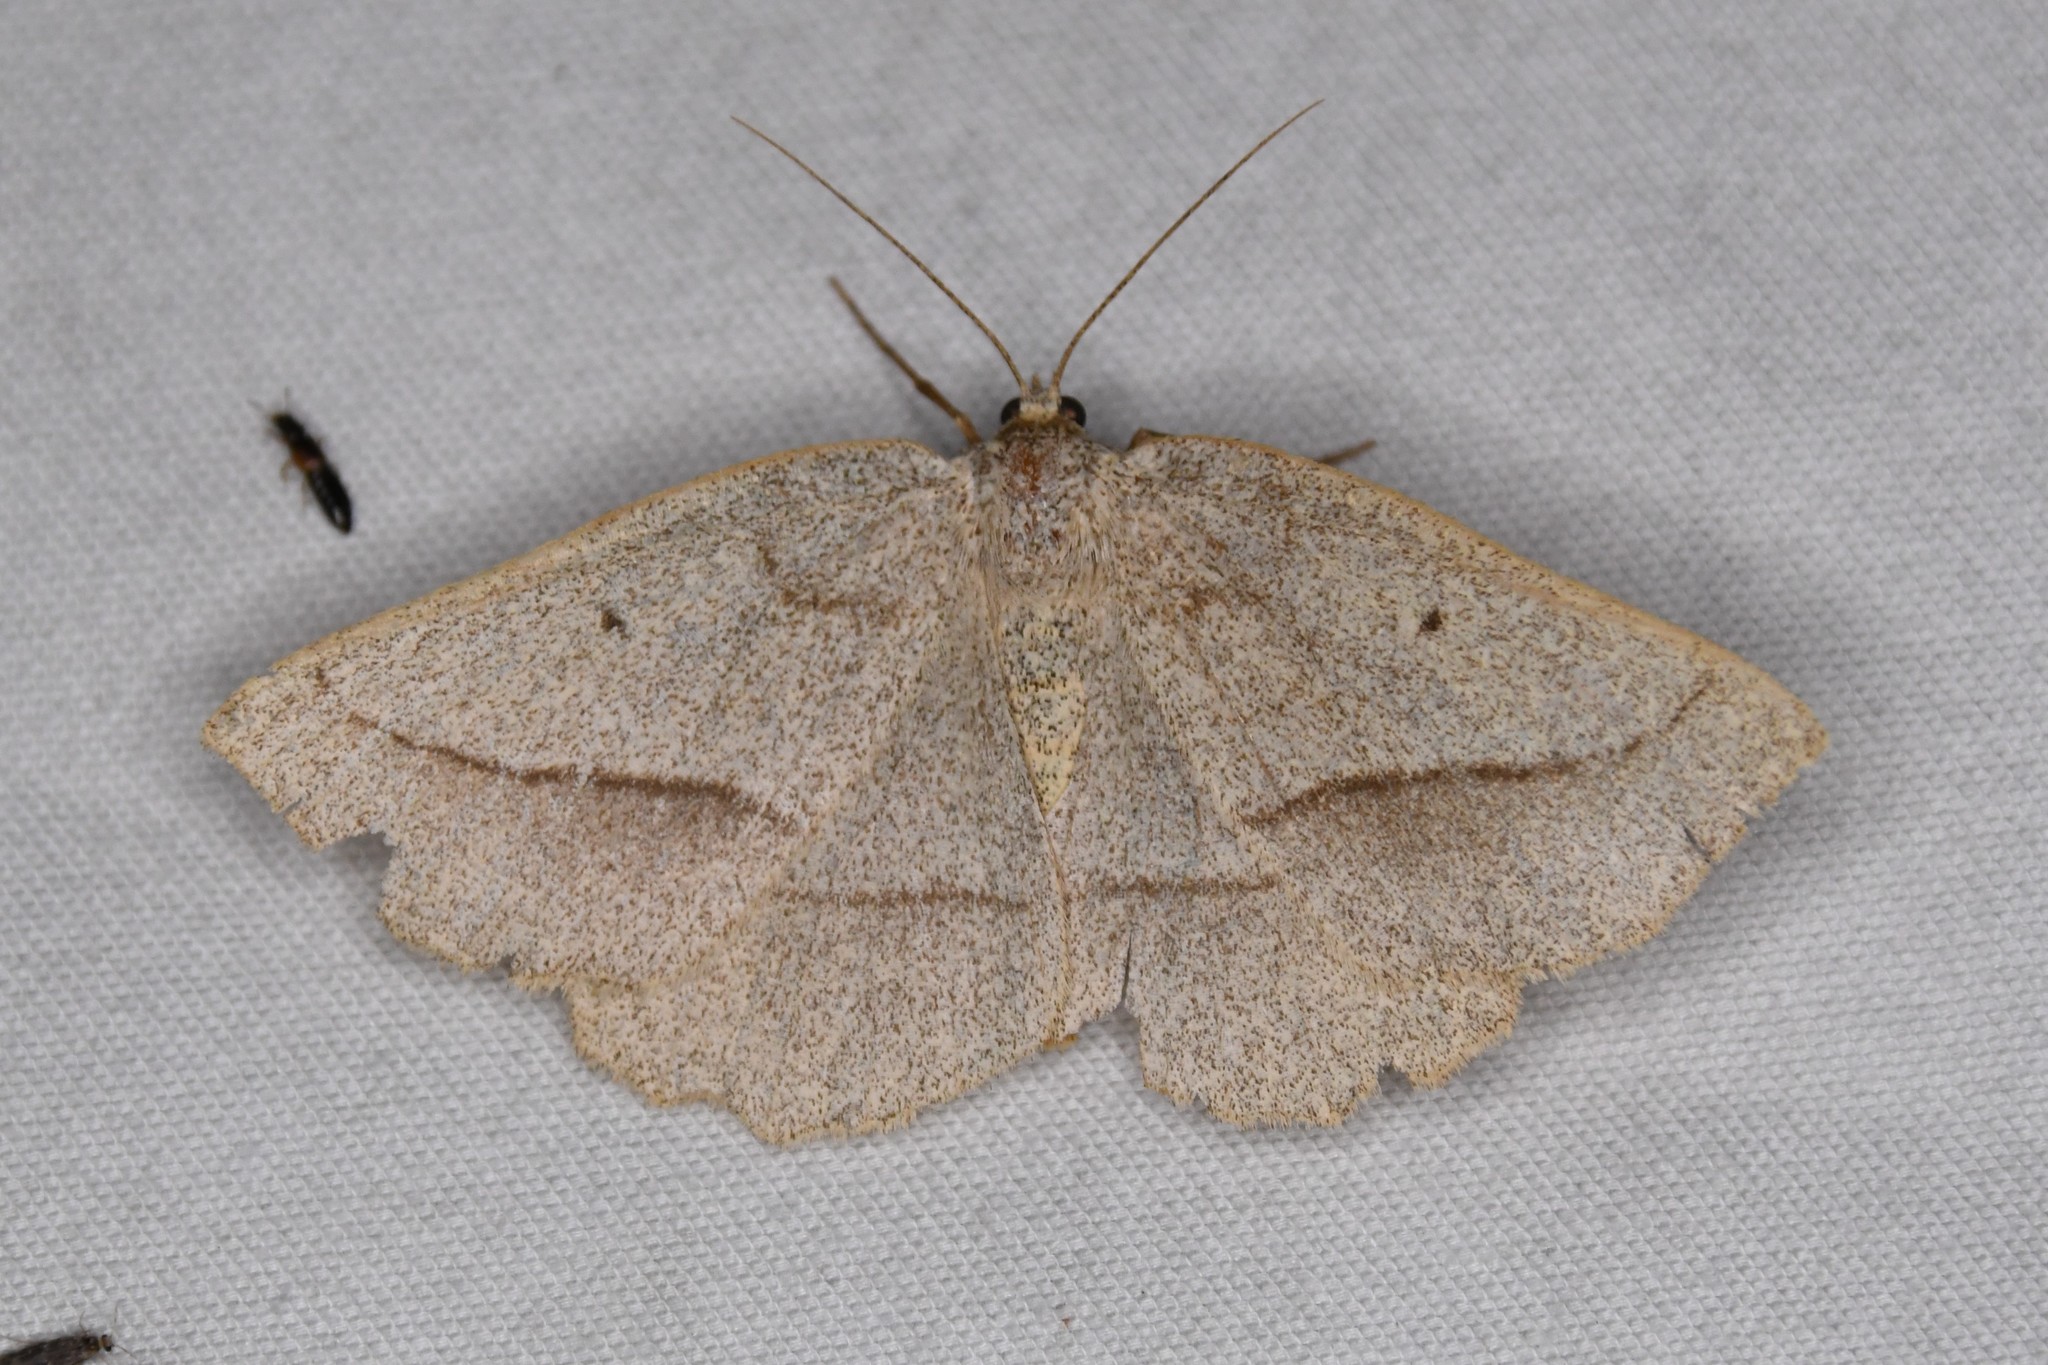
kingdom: Animalia
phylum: Arthropoda
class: Insecta
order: Lepidoptera
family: Geometridae
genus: Euchlaena
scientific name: Euchlaena irraria
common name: Least-marked euchlaena
